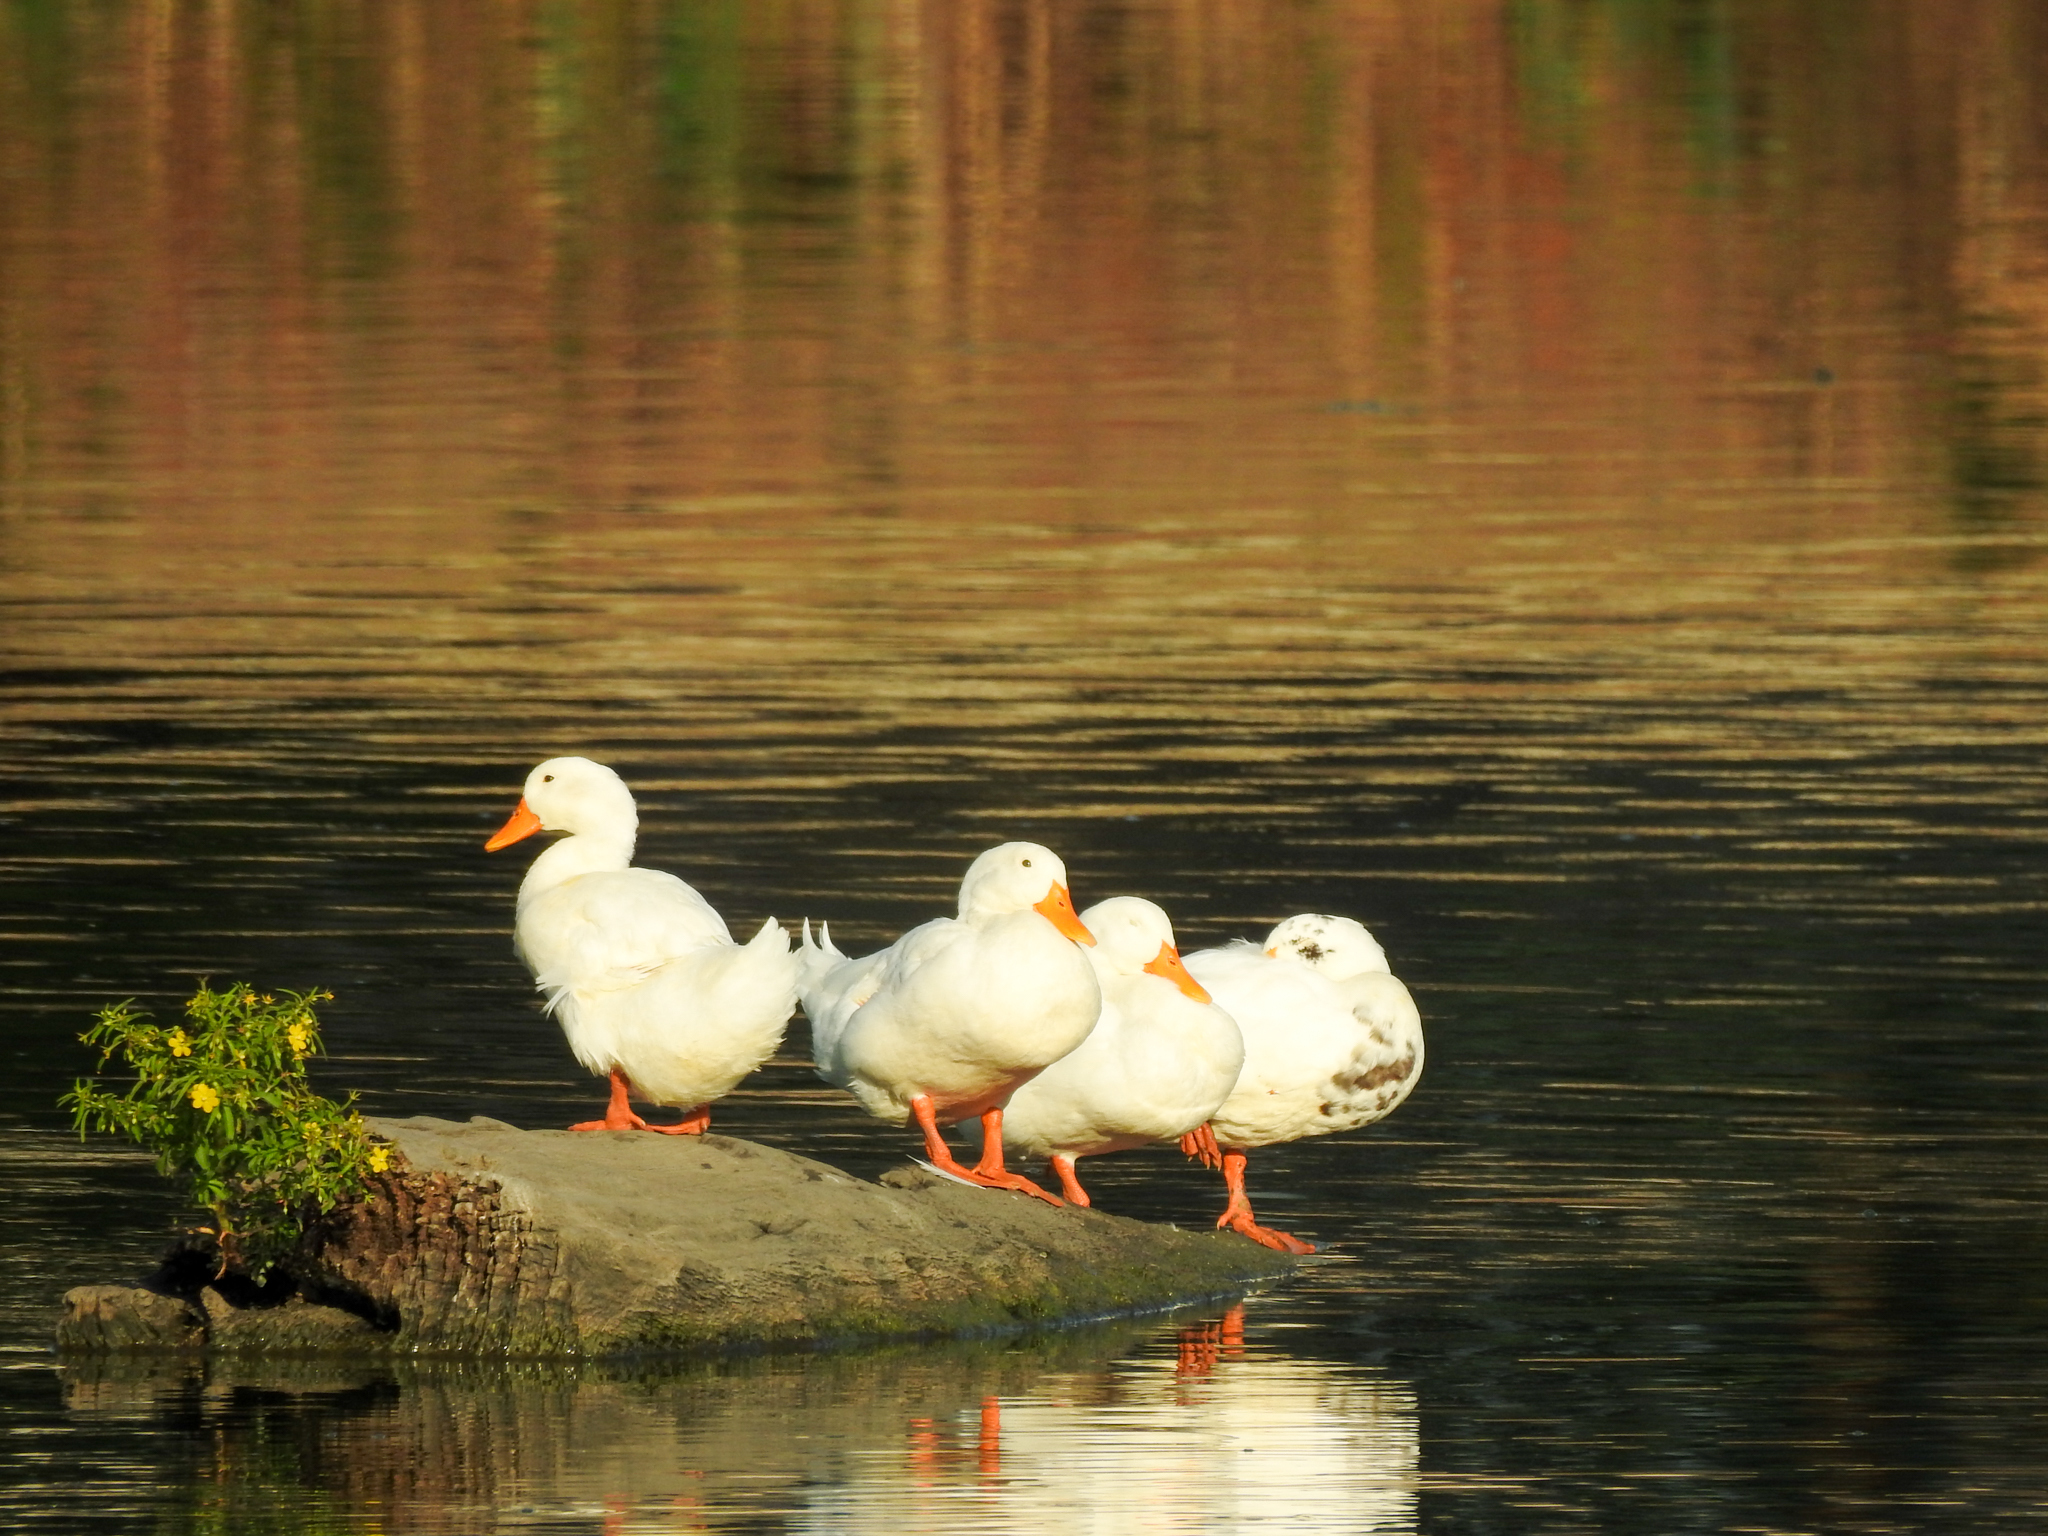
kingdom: Animalia
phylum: Chordata
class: Aves
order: Anseriformes
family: Anatidae
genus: Anas
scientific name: Anas platyrhynchos
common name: Mallard
